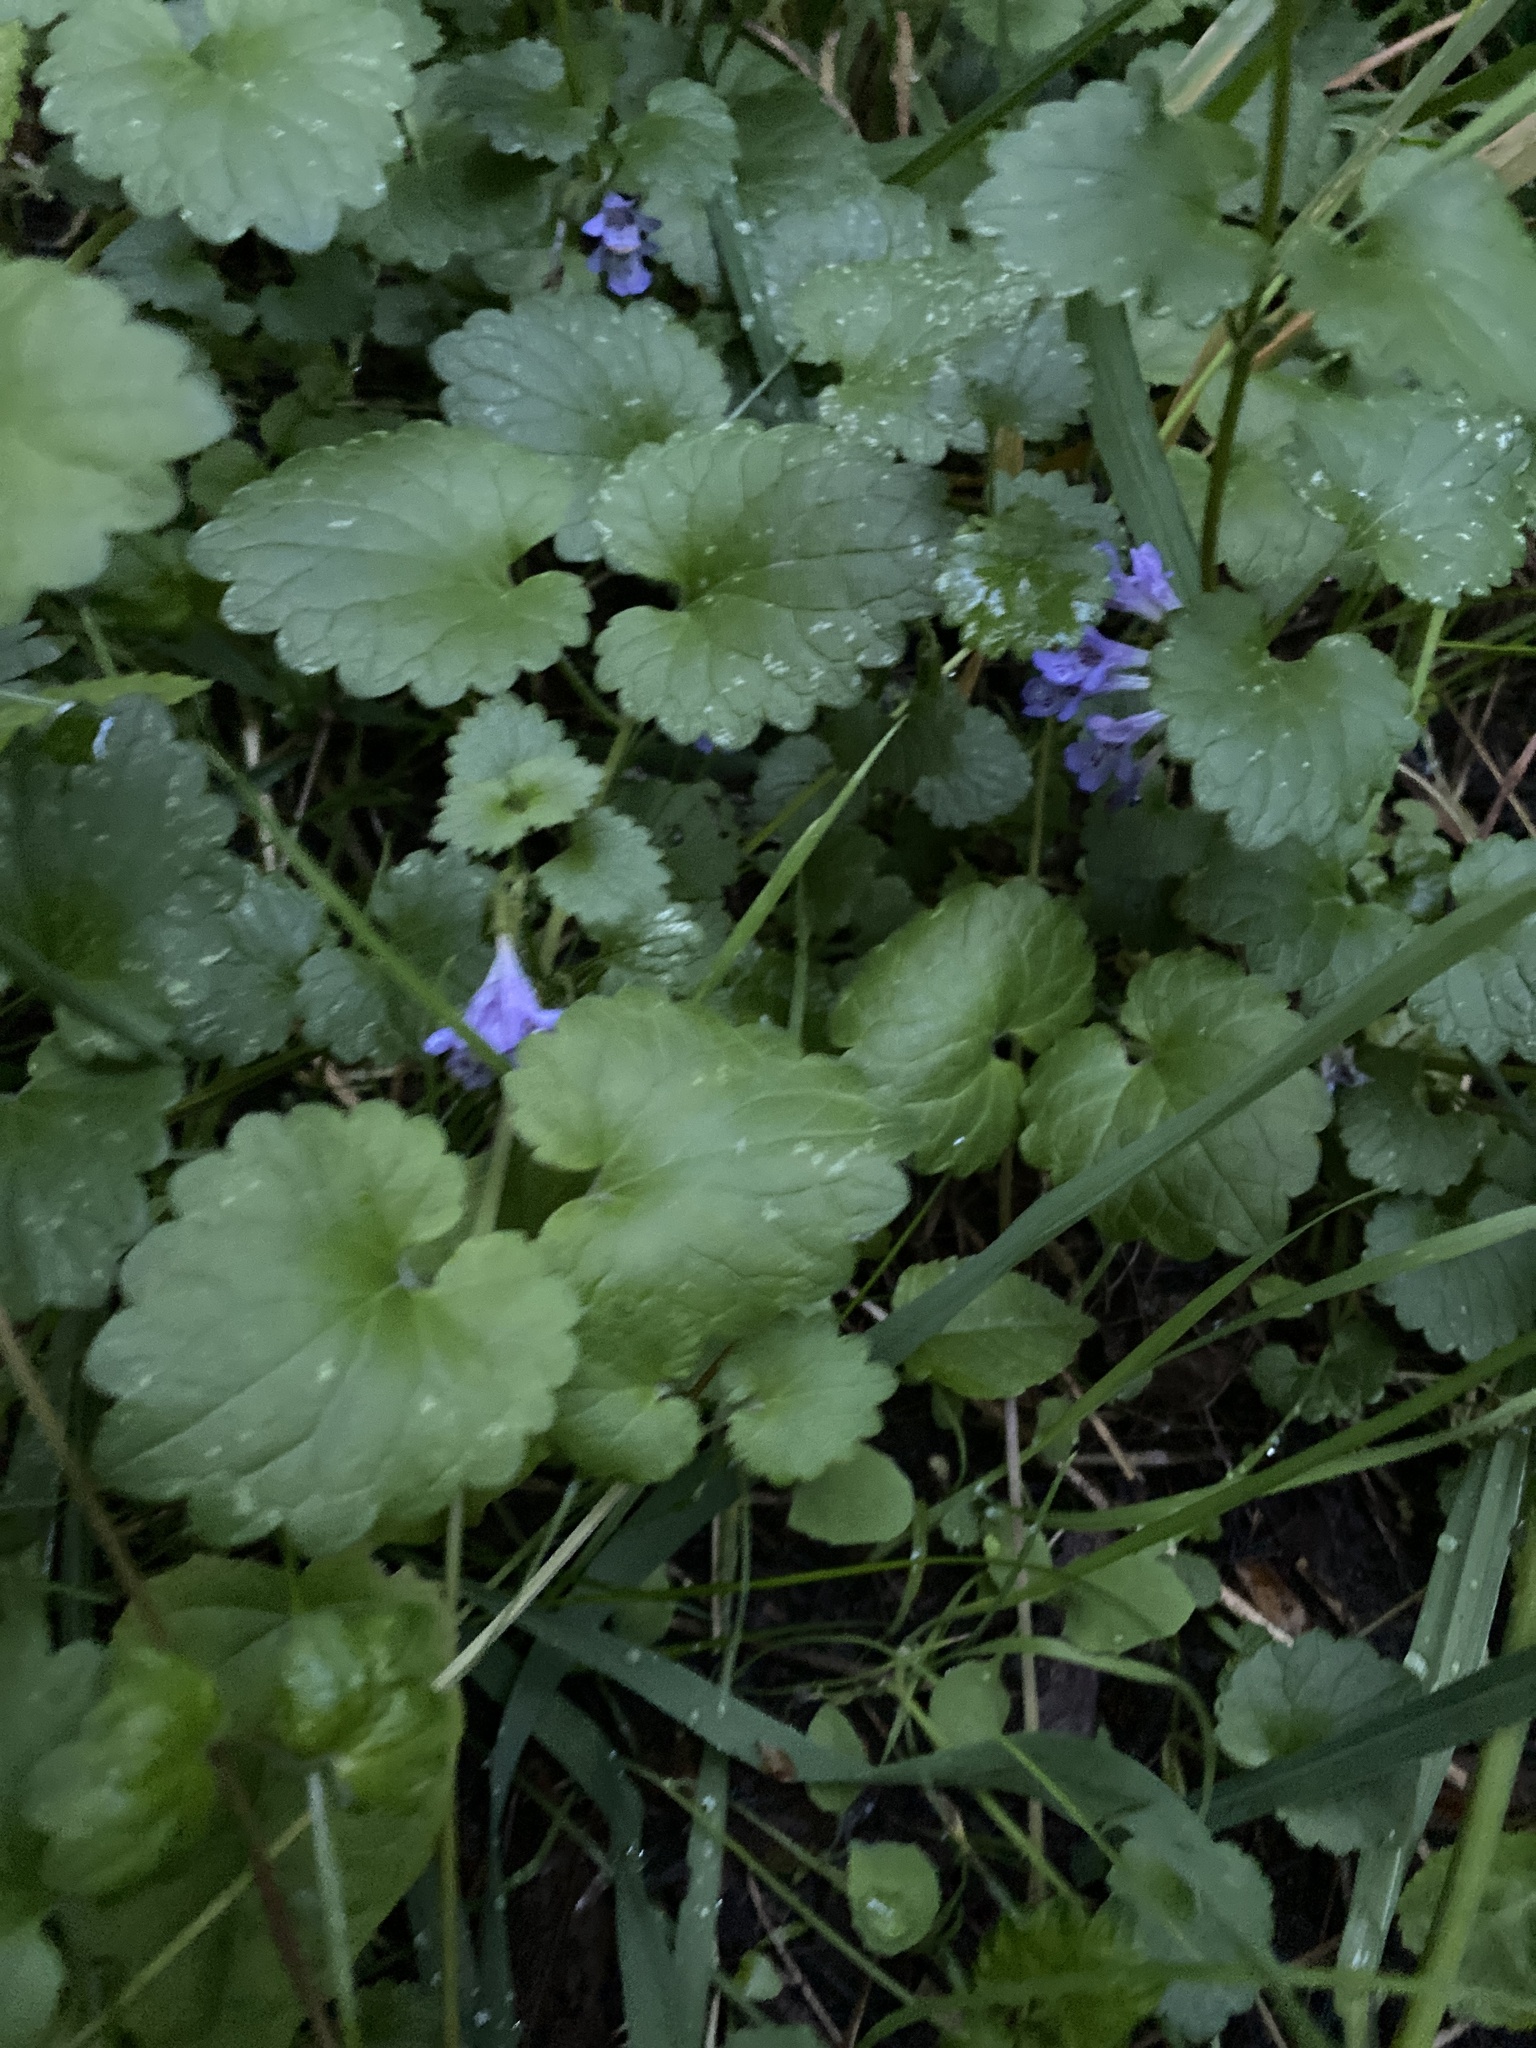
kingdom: Plantae
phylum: Tracheophyta
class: Magnoliopsida
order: Lamiales
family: Lamiaceae
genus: Glechoma
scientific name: Glechoma hederacea
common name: Ground ivy
